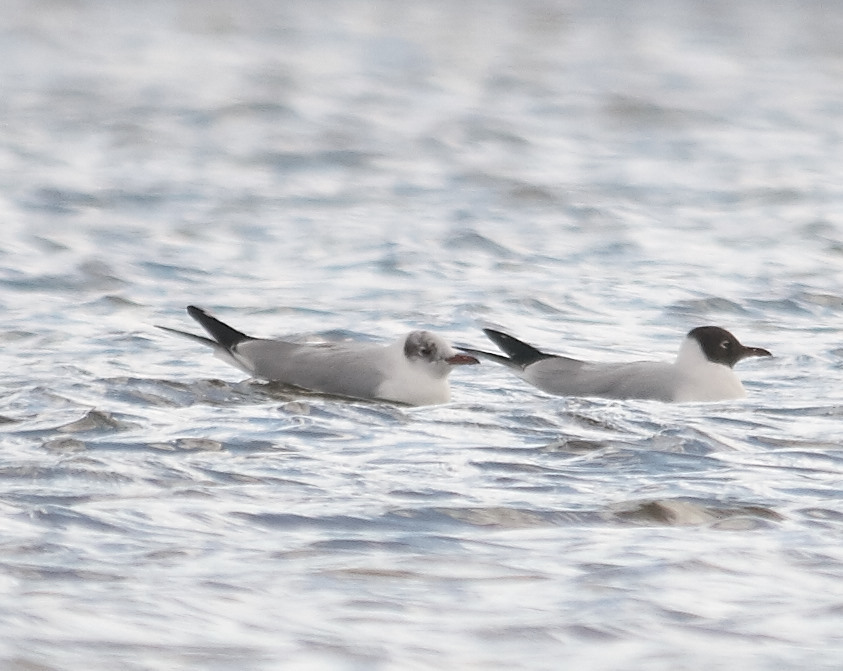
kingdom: Animalia
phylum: Chordata
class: Aves
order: Charadriiformes
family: Laridae
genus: Chroicocephalus
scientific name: Chroicocephalus ridibundus
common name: Black-headed gull
